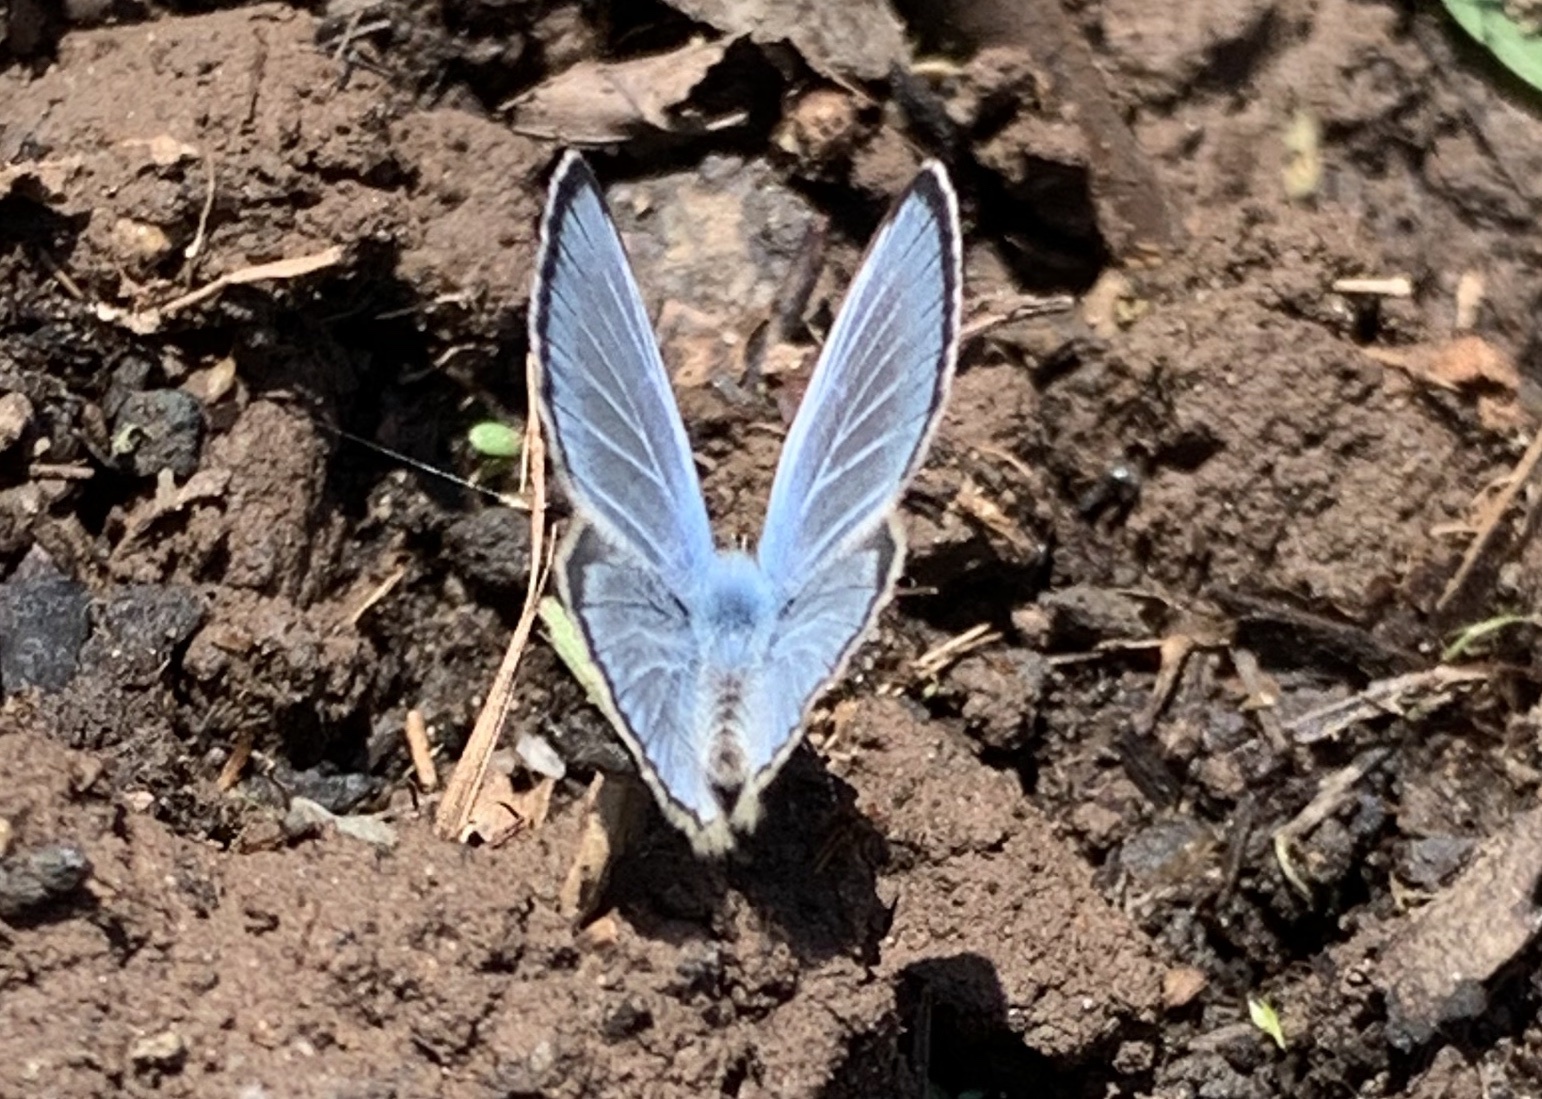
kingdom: Animalia
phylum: Arthropoda
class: Insecta
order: Lepidoptera
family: Lycaenidae
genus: Glaucopsyche
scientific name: Glaucopsyche lygdamus
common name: Silvery blue
